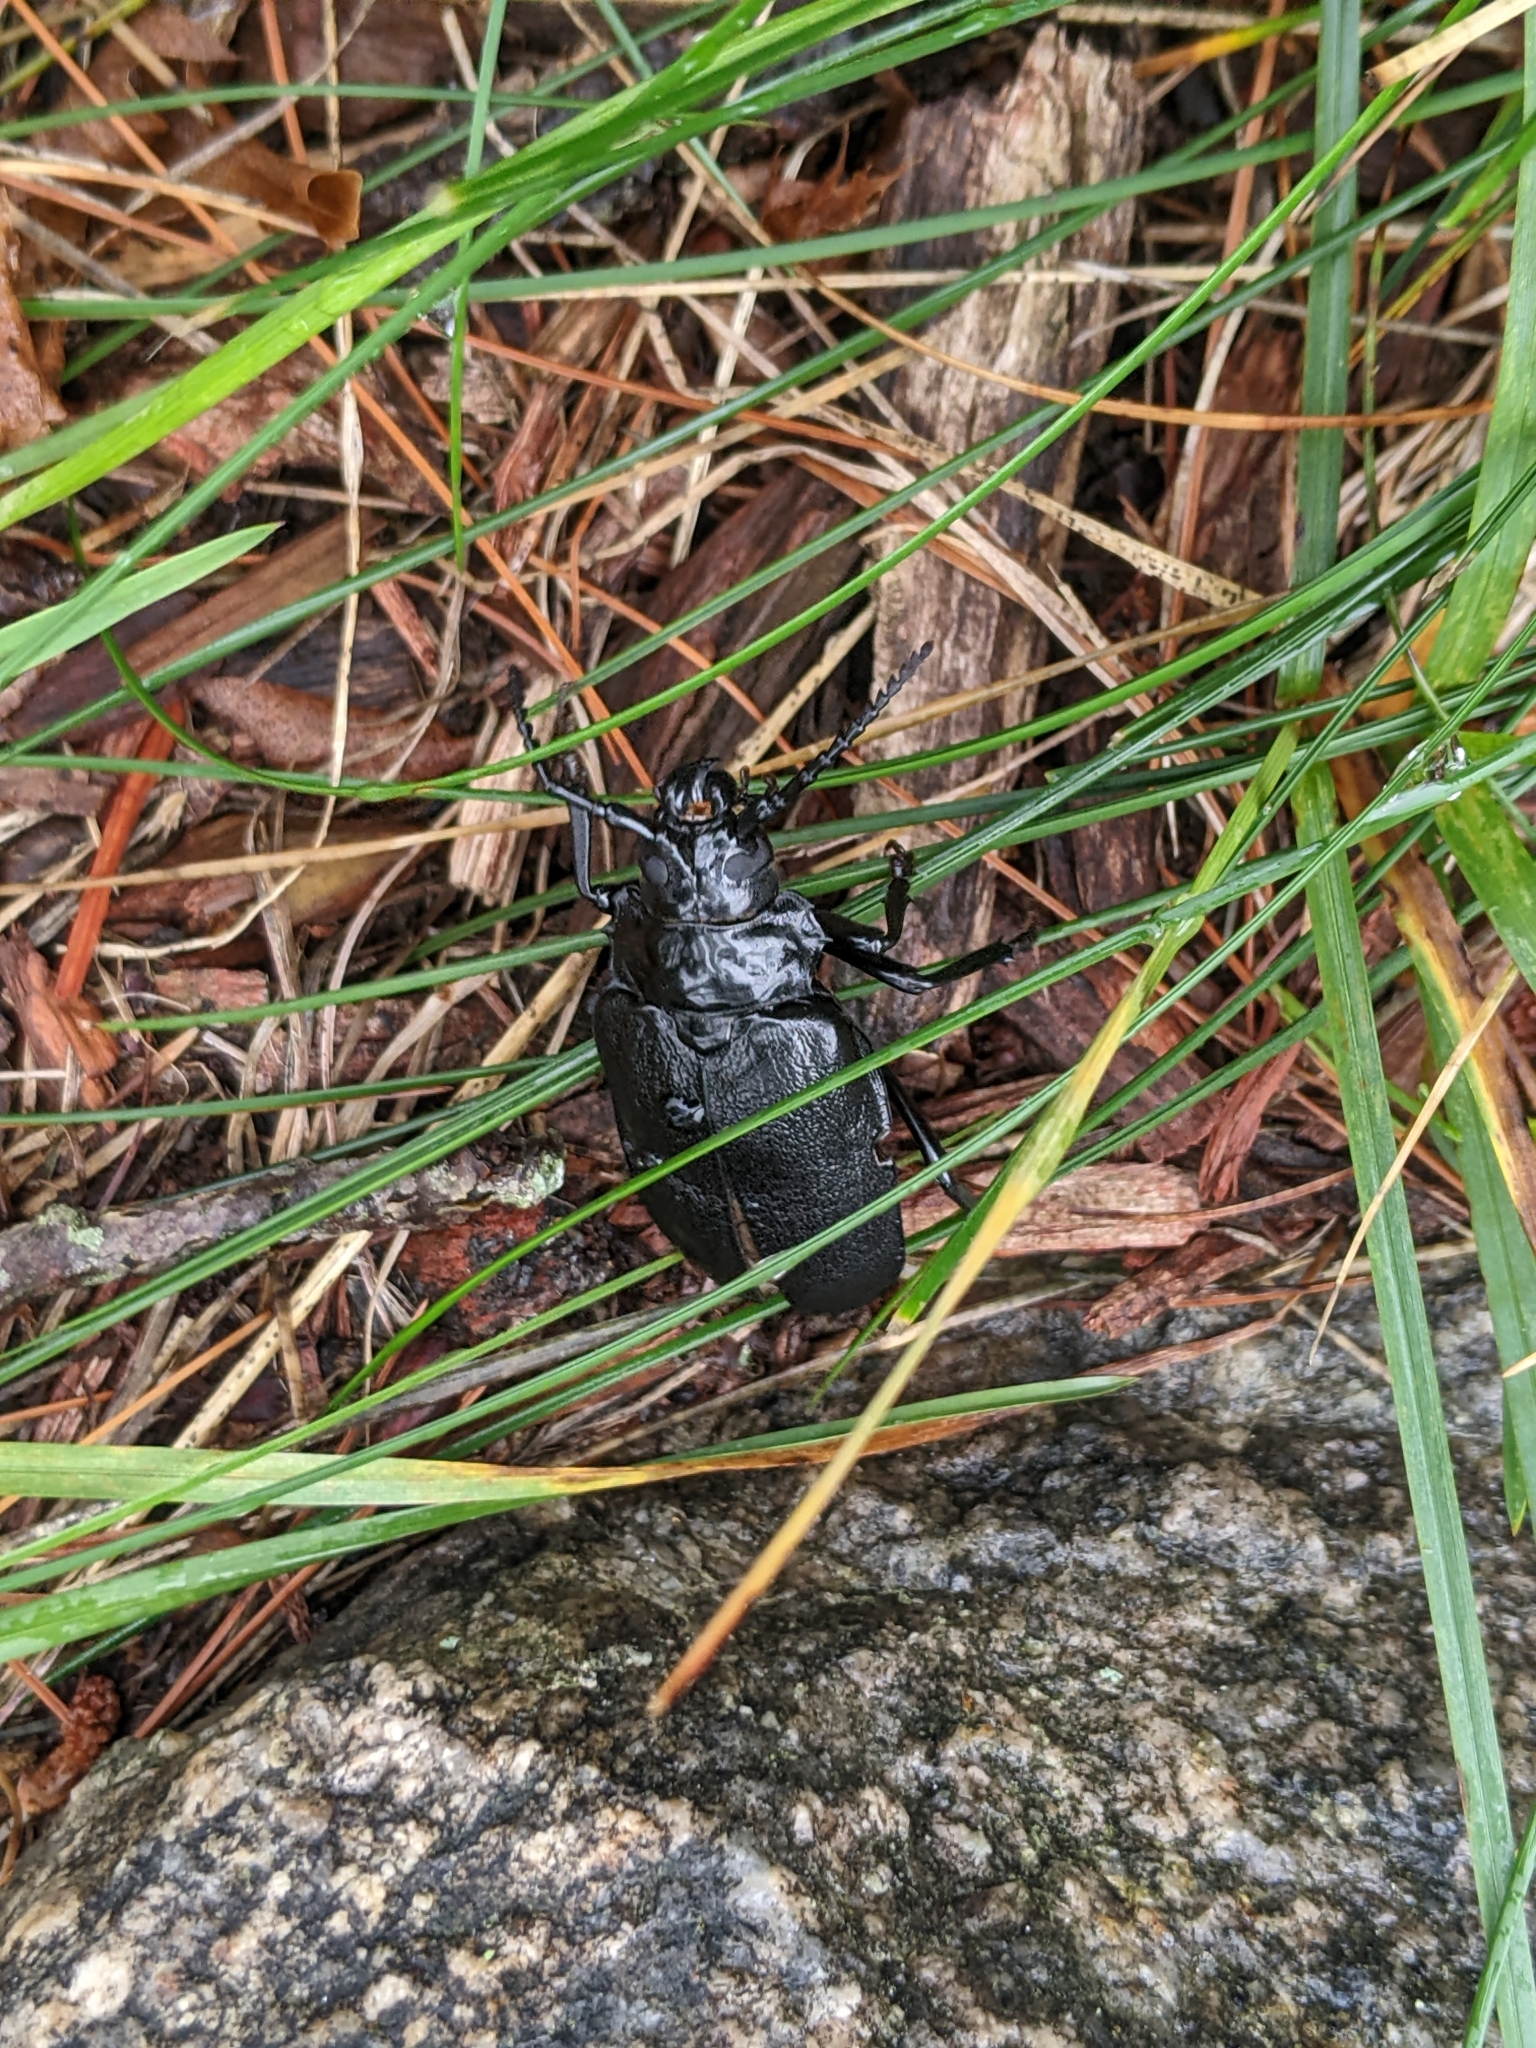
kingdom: Animalia
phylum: Arthropoda
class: Insecta
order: Coleoptera
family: Cerambycidae
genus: Prionus
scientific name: Prionus laticollis
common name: Broad necked prionus
